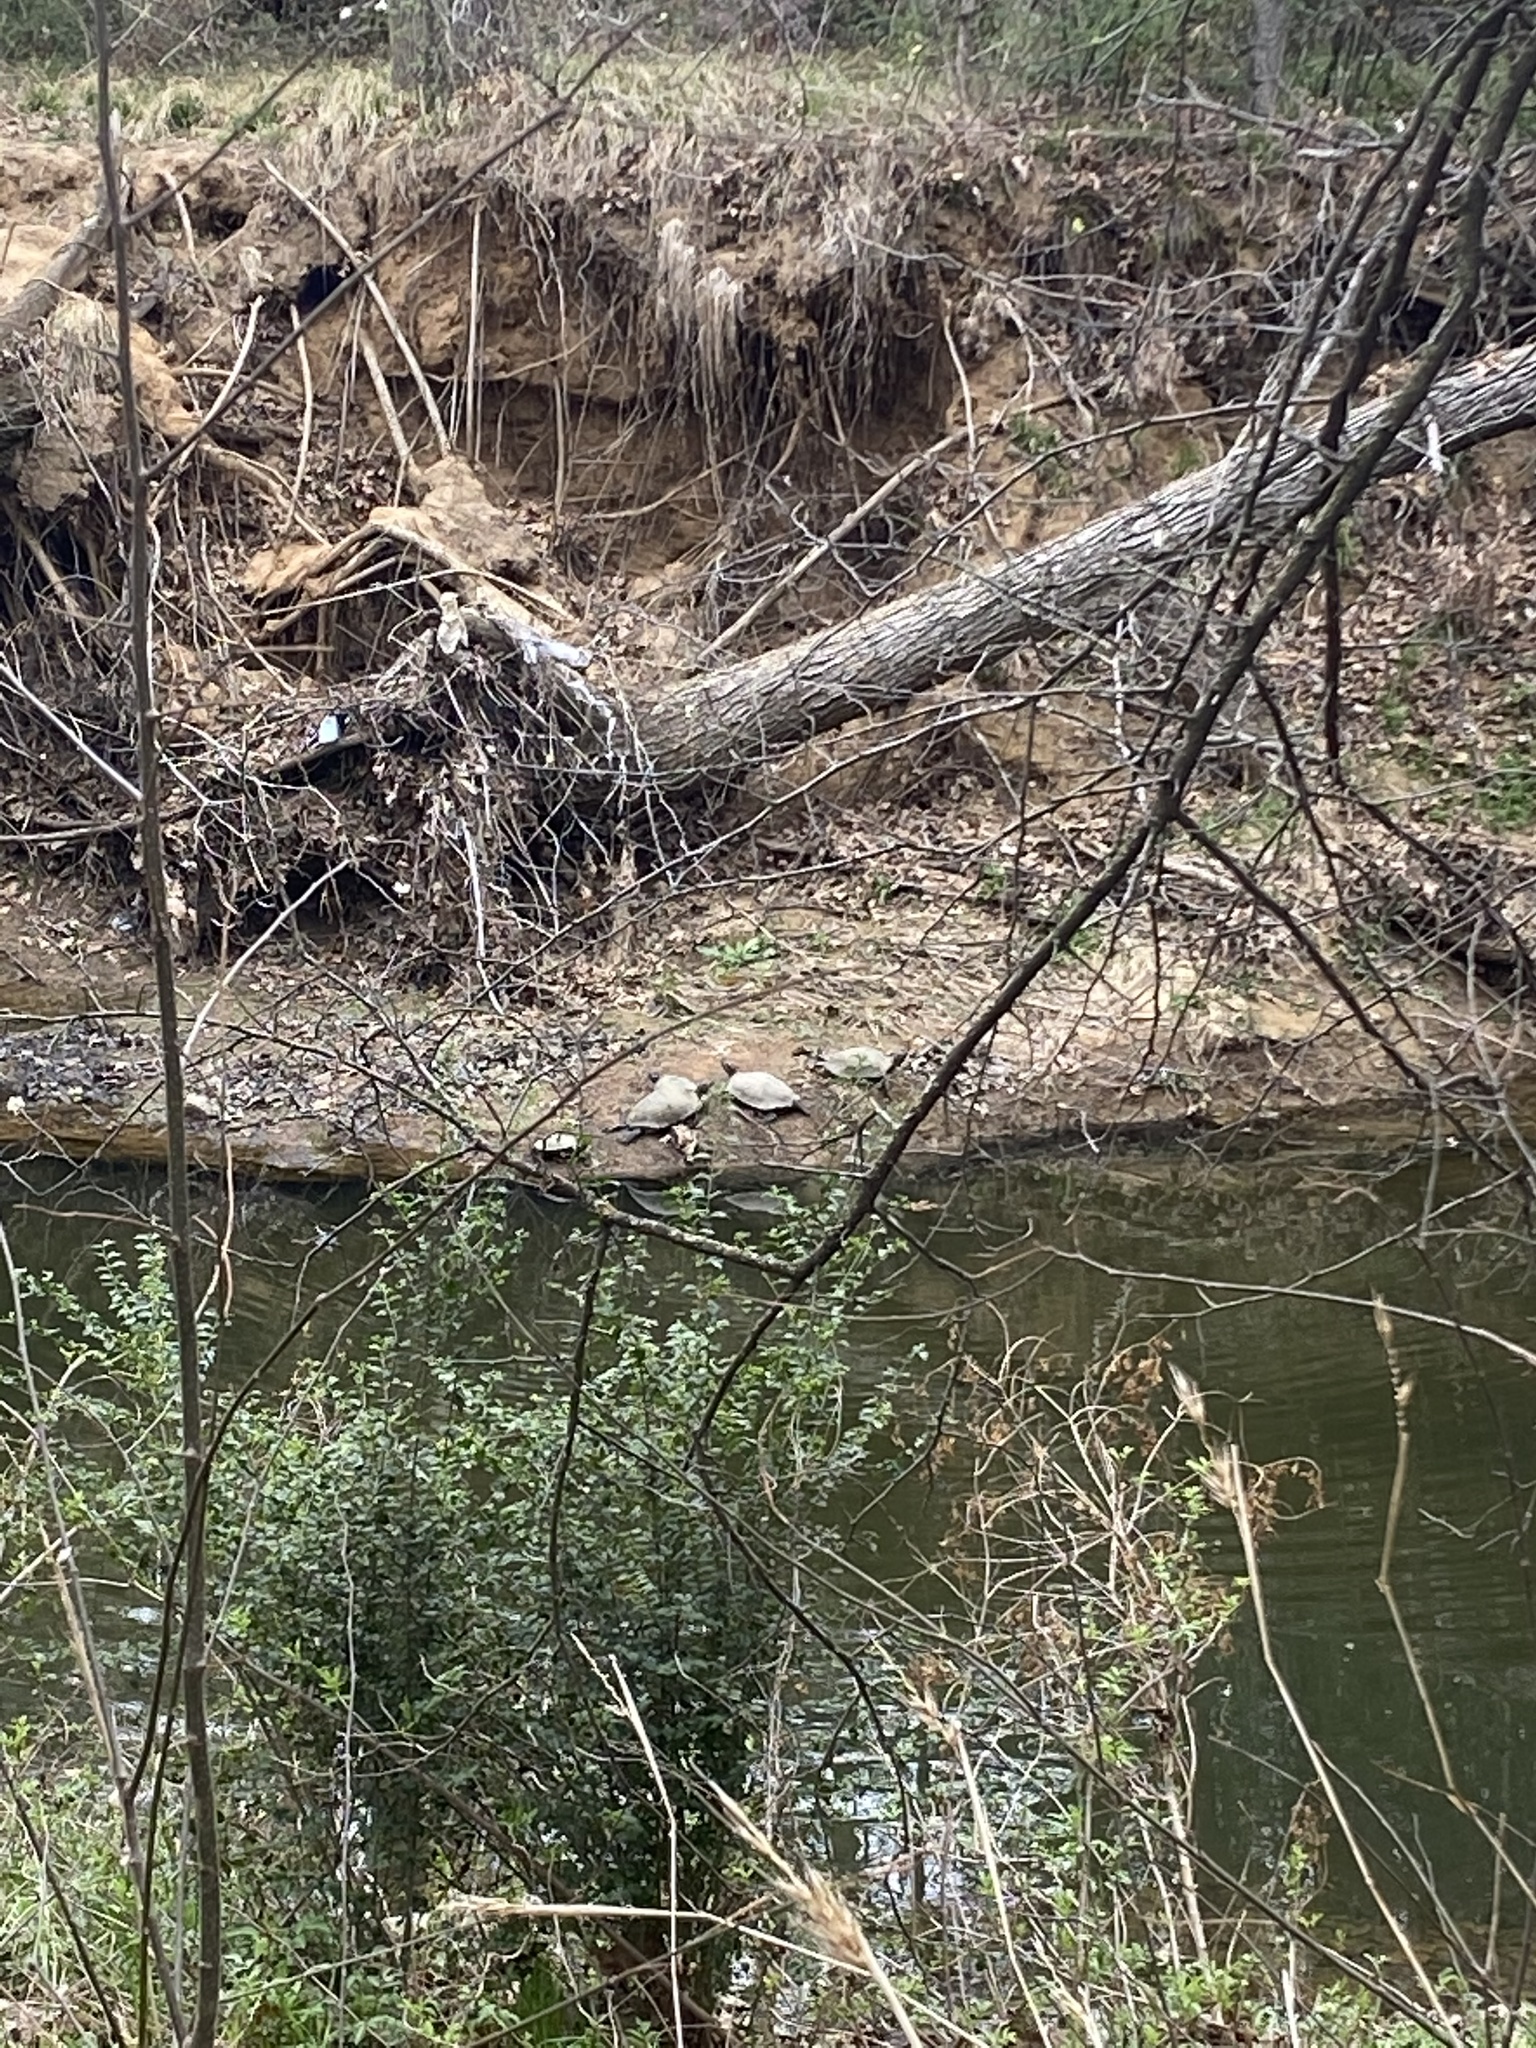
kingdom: Animalia
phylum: Chordata
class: Testudines
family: Emydidae
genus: Trachemys
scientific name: Trachemys scripta
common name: Slider
